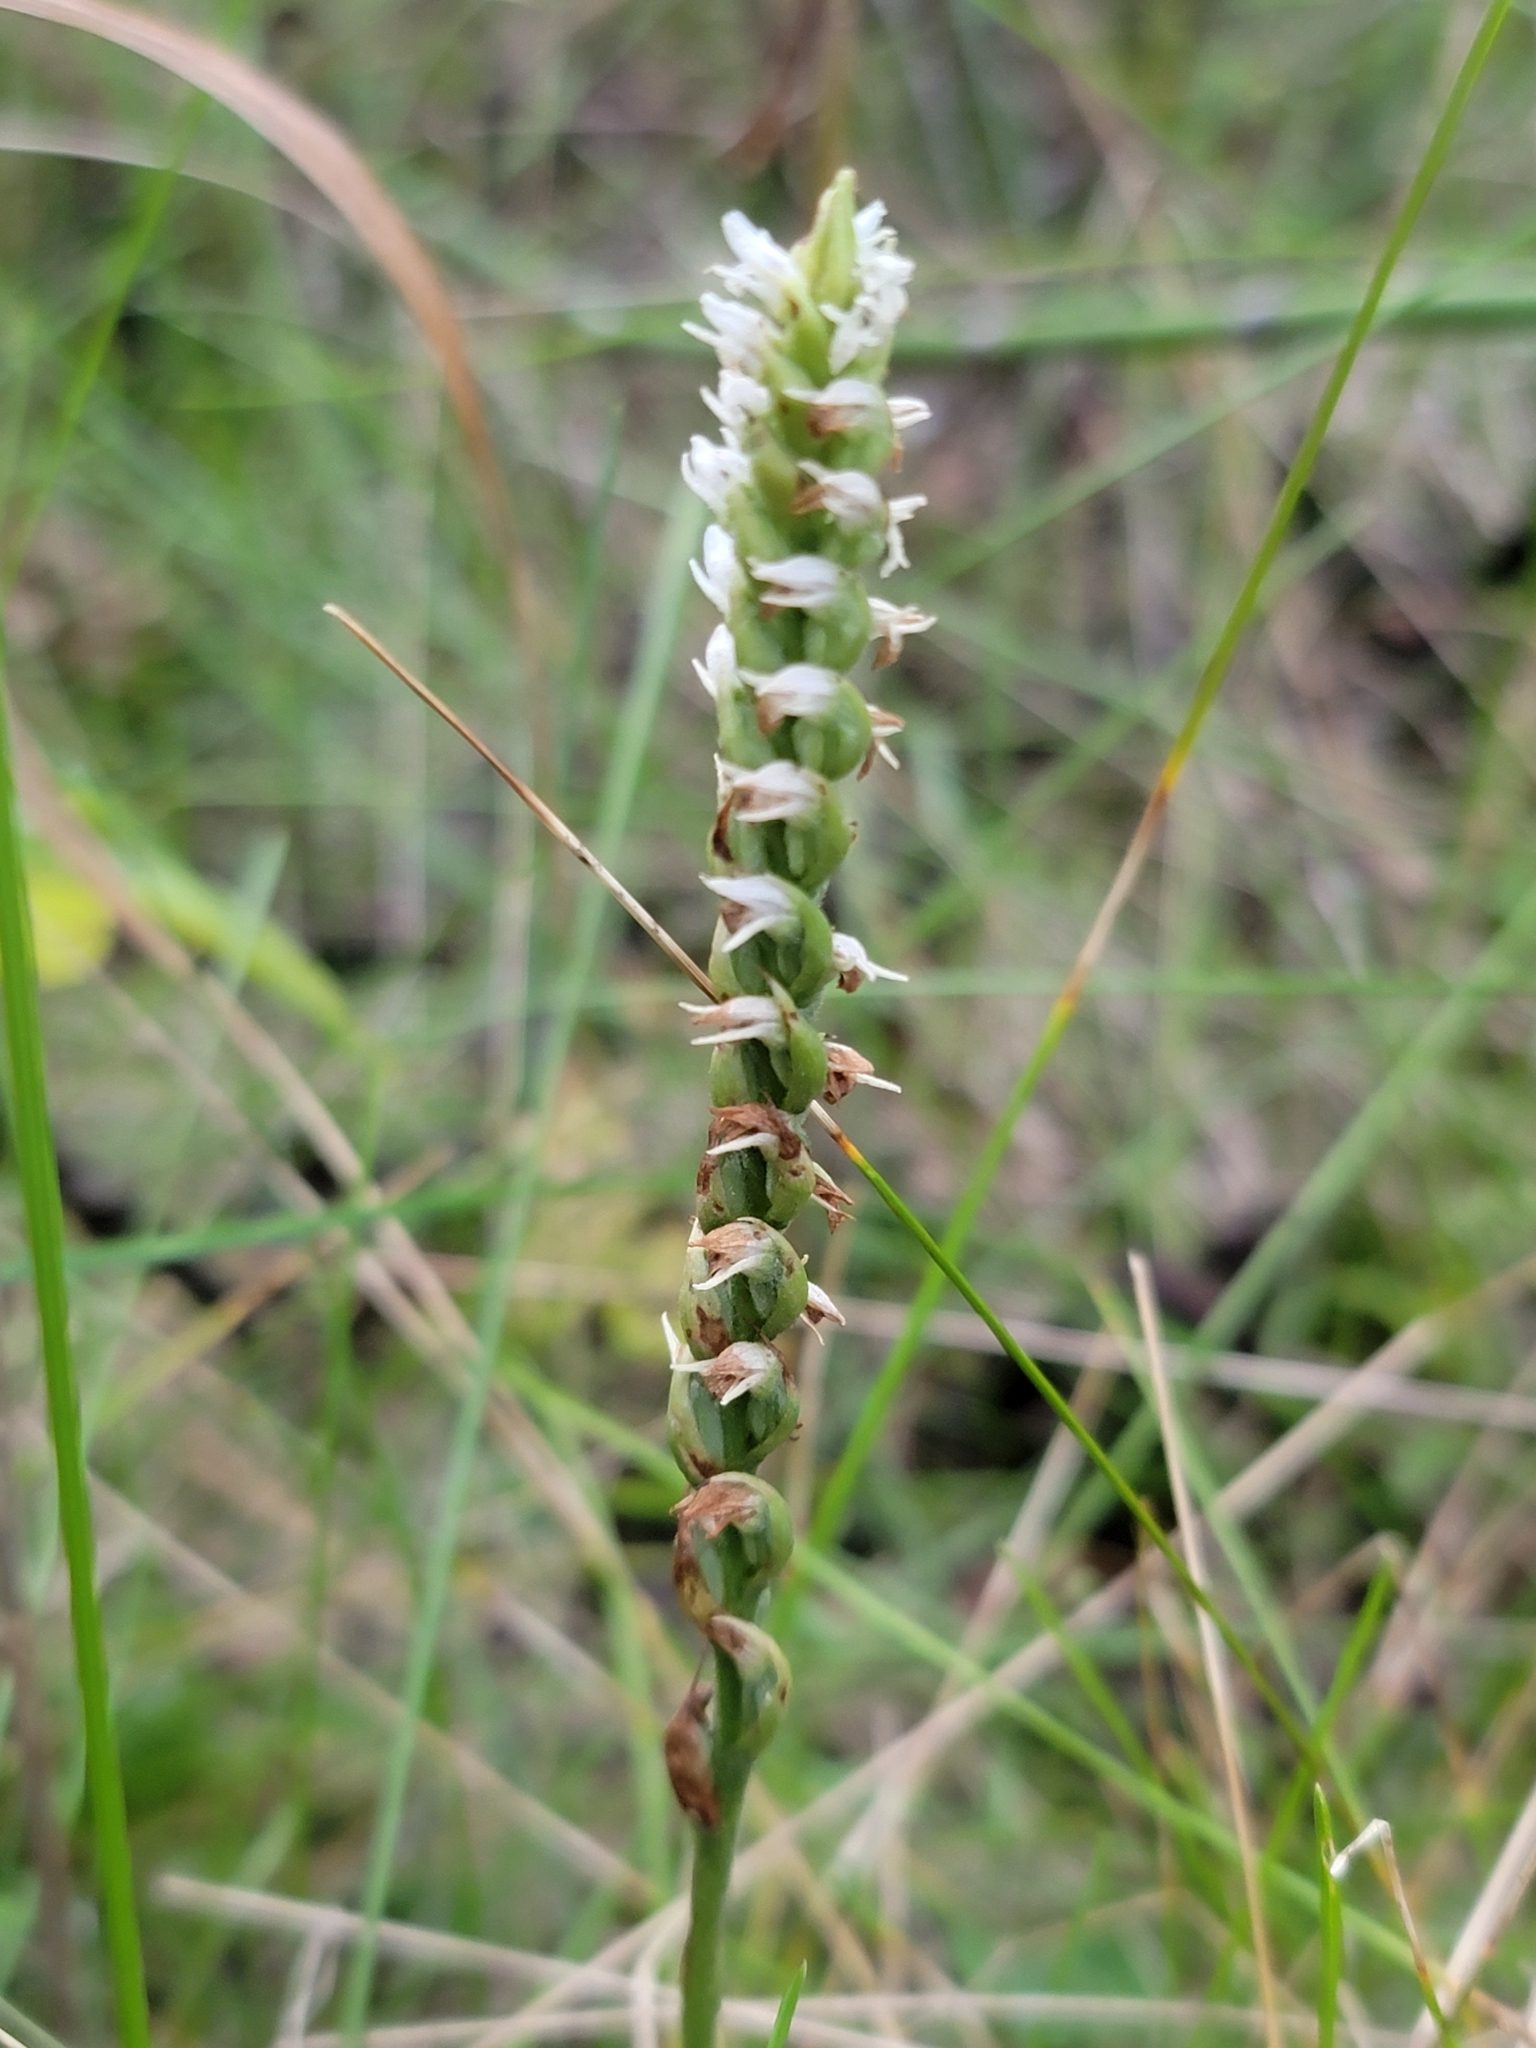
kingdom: Plantae
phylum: Tracheophyta
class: Liliopsida
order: Asparagales
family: Orchidaceae
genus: Spiranthes
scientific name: Spiranthes ovalis
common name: October ladies'-tresses
